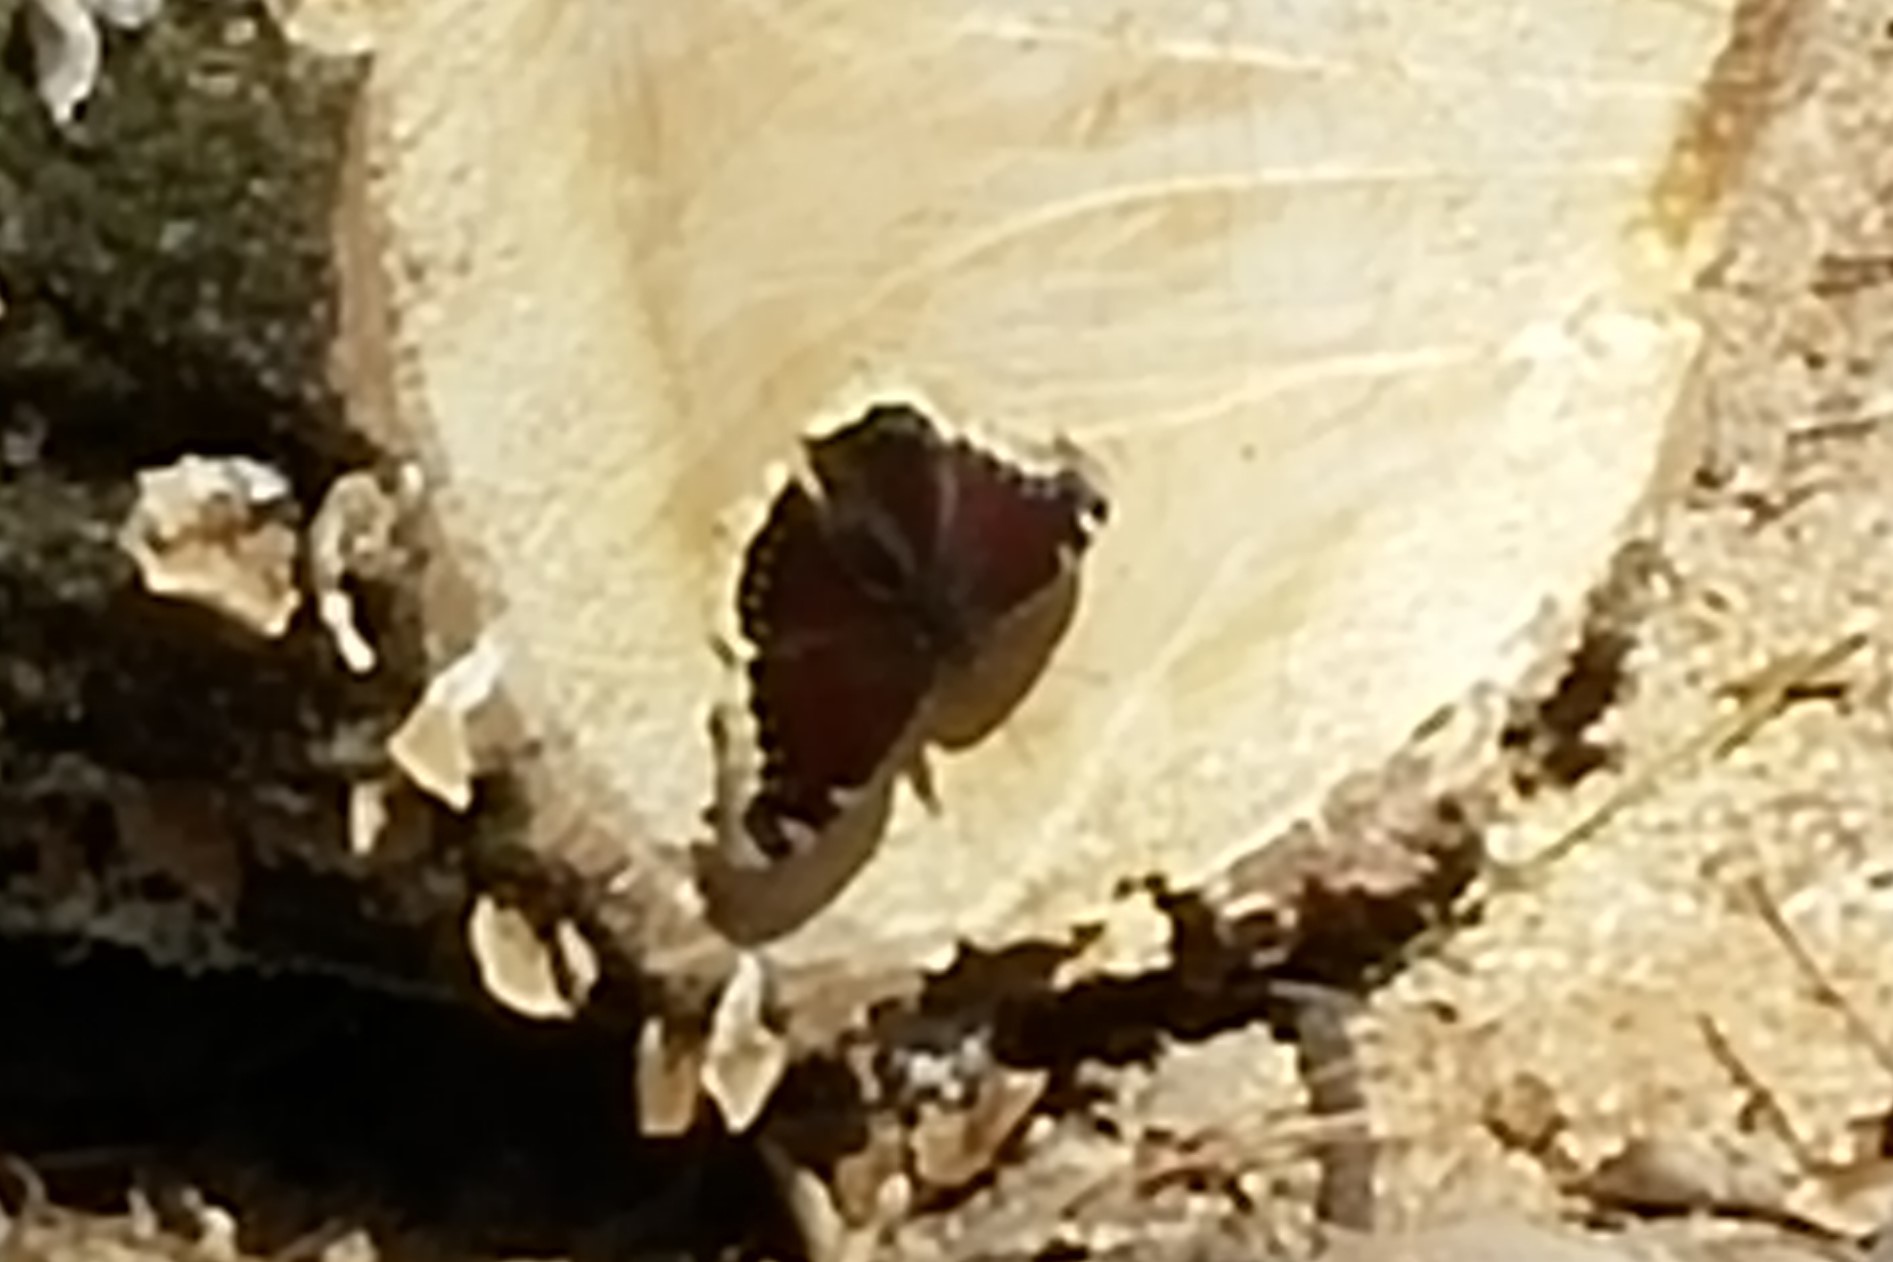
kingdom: Animalia
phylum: Arthropoda
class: Insecta
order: Lepidoptera
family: Nymphalidae
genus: Nymphalis
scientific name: Nymphalis antiopa
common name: Camberwell beauty
